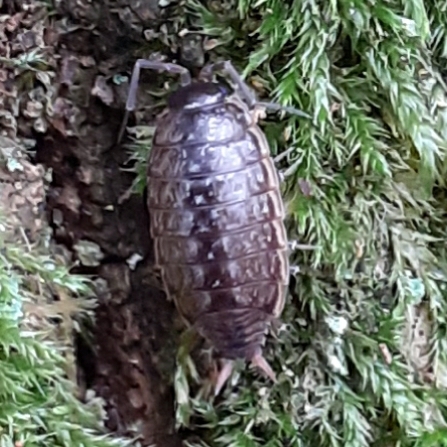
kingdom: Animalia
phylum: Arthropoda
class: Malacostraca
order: Isopoda
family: Philosciidae
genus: Philoscia
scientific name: Philoscia muscorum
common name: Common striped woodlouse
